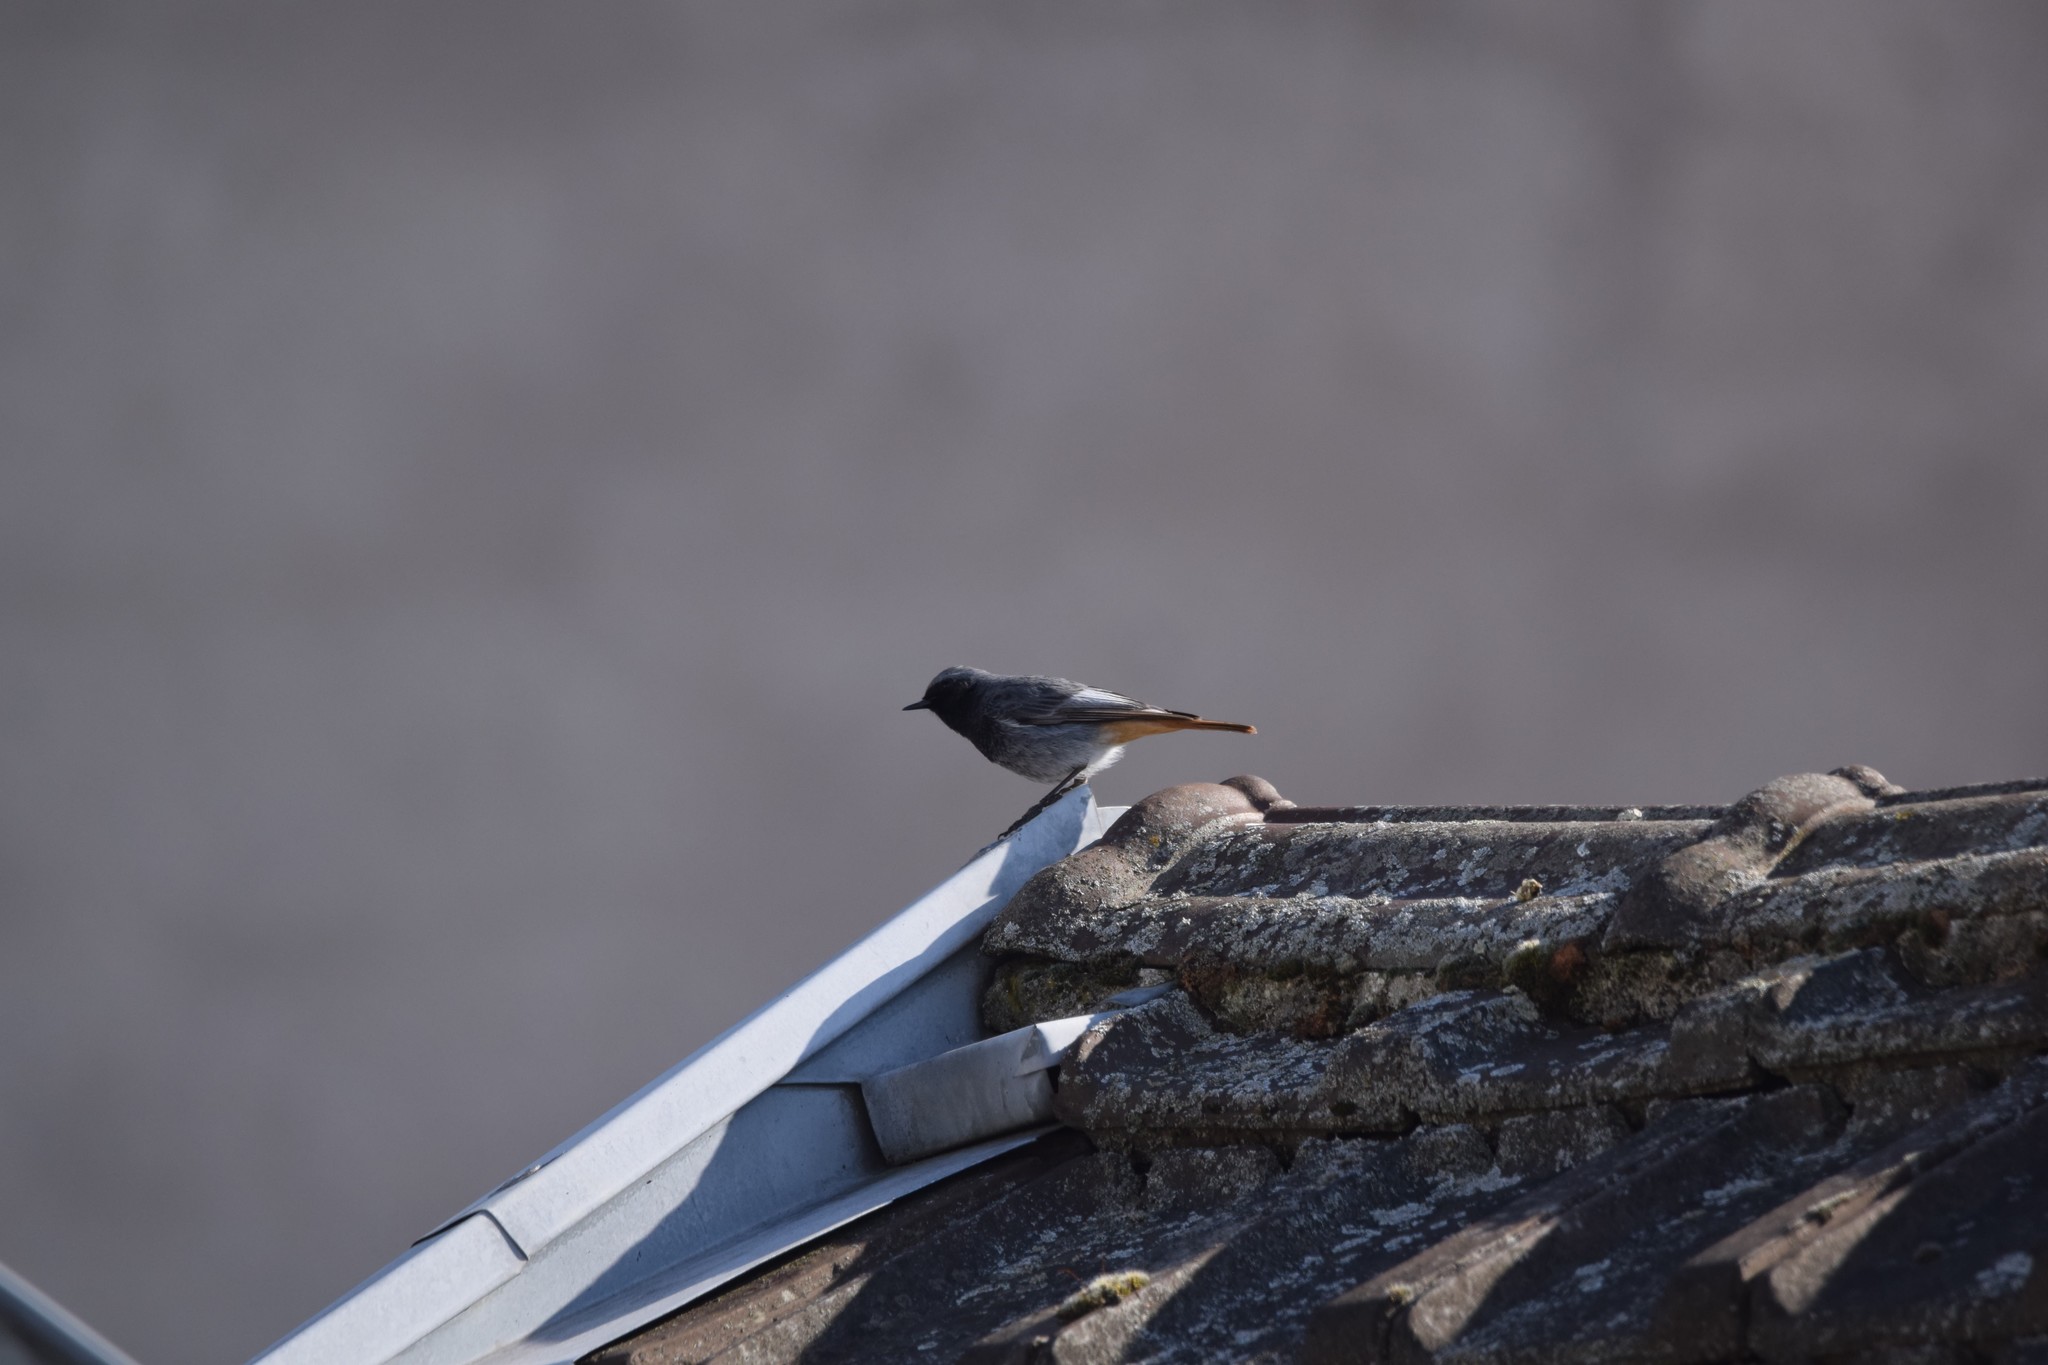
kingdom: Animalia
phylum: Chordata
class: Aves
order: Passeriformes
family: Muscicapidae
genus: Phoenicurus
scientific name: Phoenicurus ochruros
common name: Black redstart
